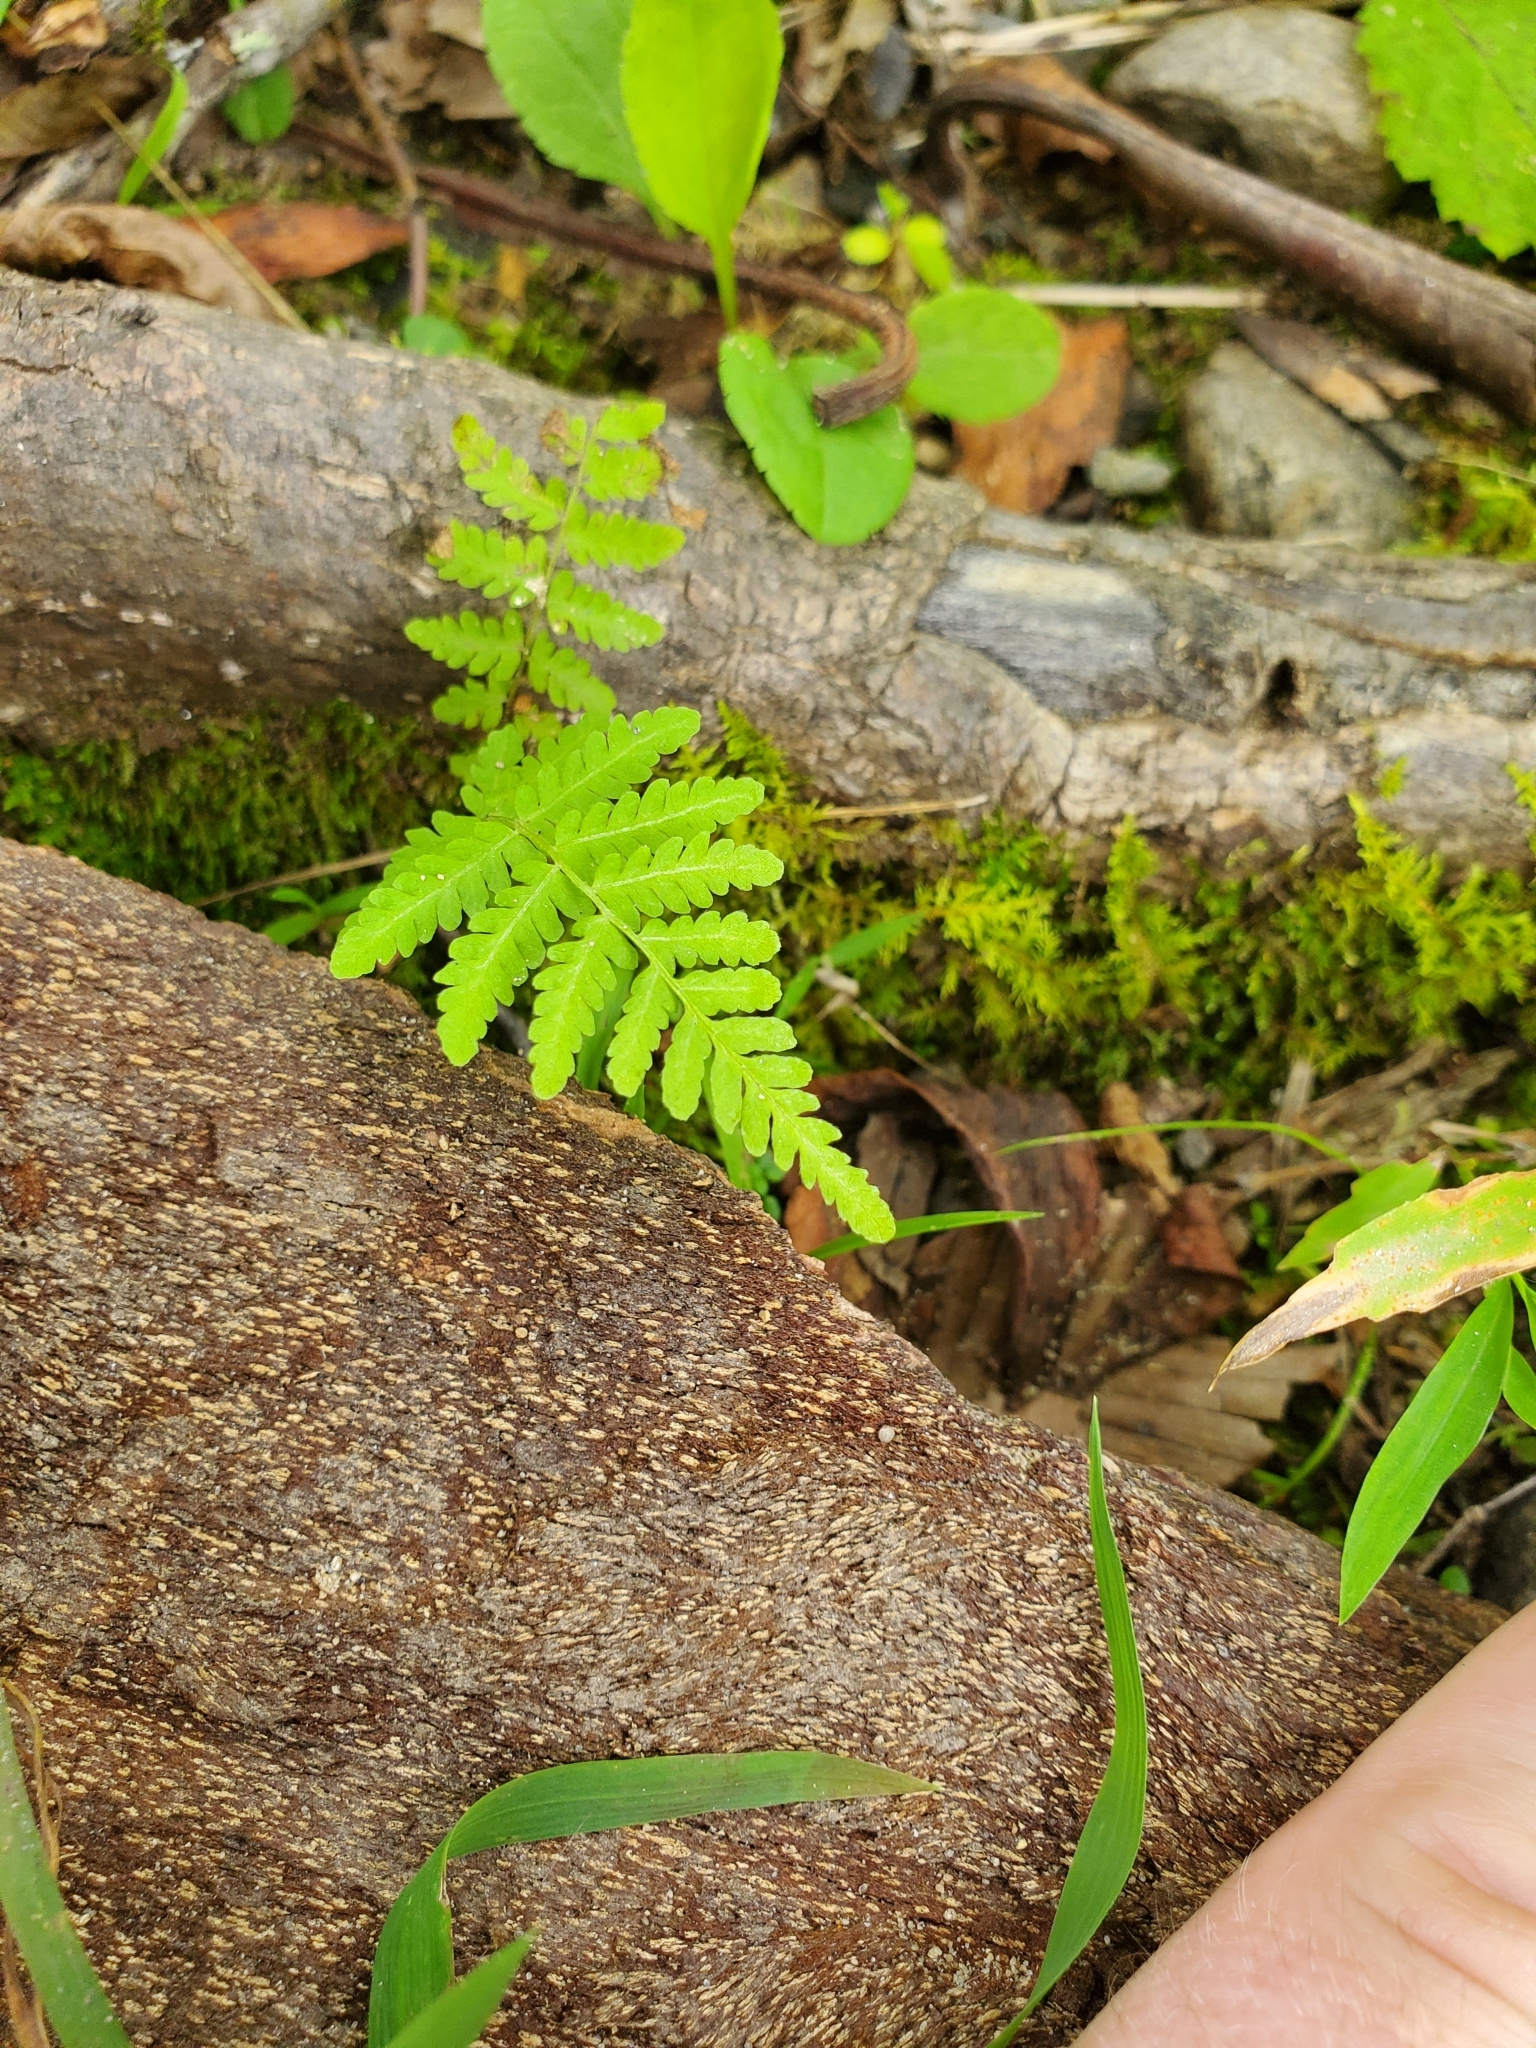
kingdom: Plantae
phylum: Tracheophyta
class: Polypodiopsida
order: Polypodiales
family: Woodsiaceae
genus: Physematium
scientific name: Physematium obtusum
